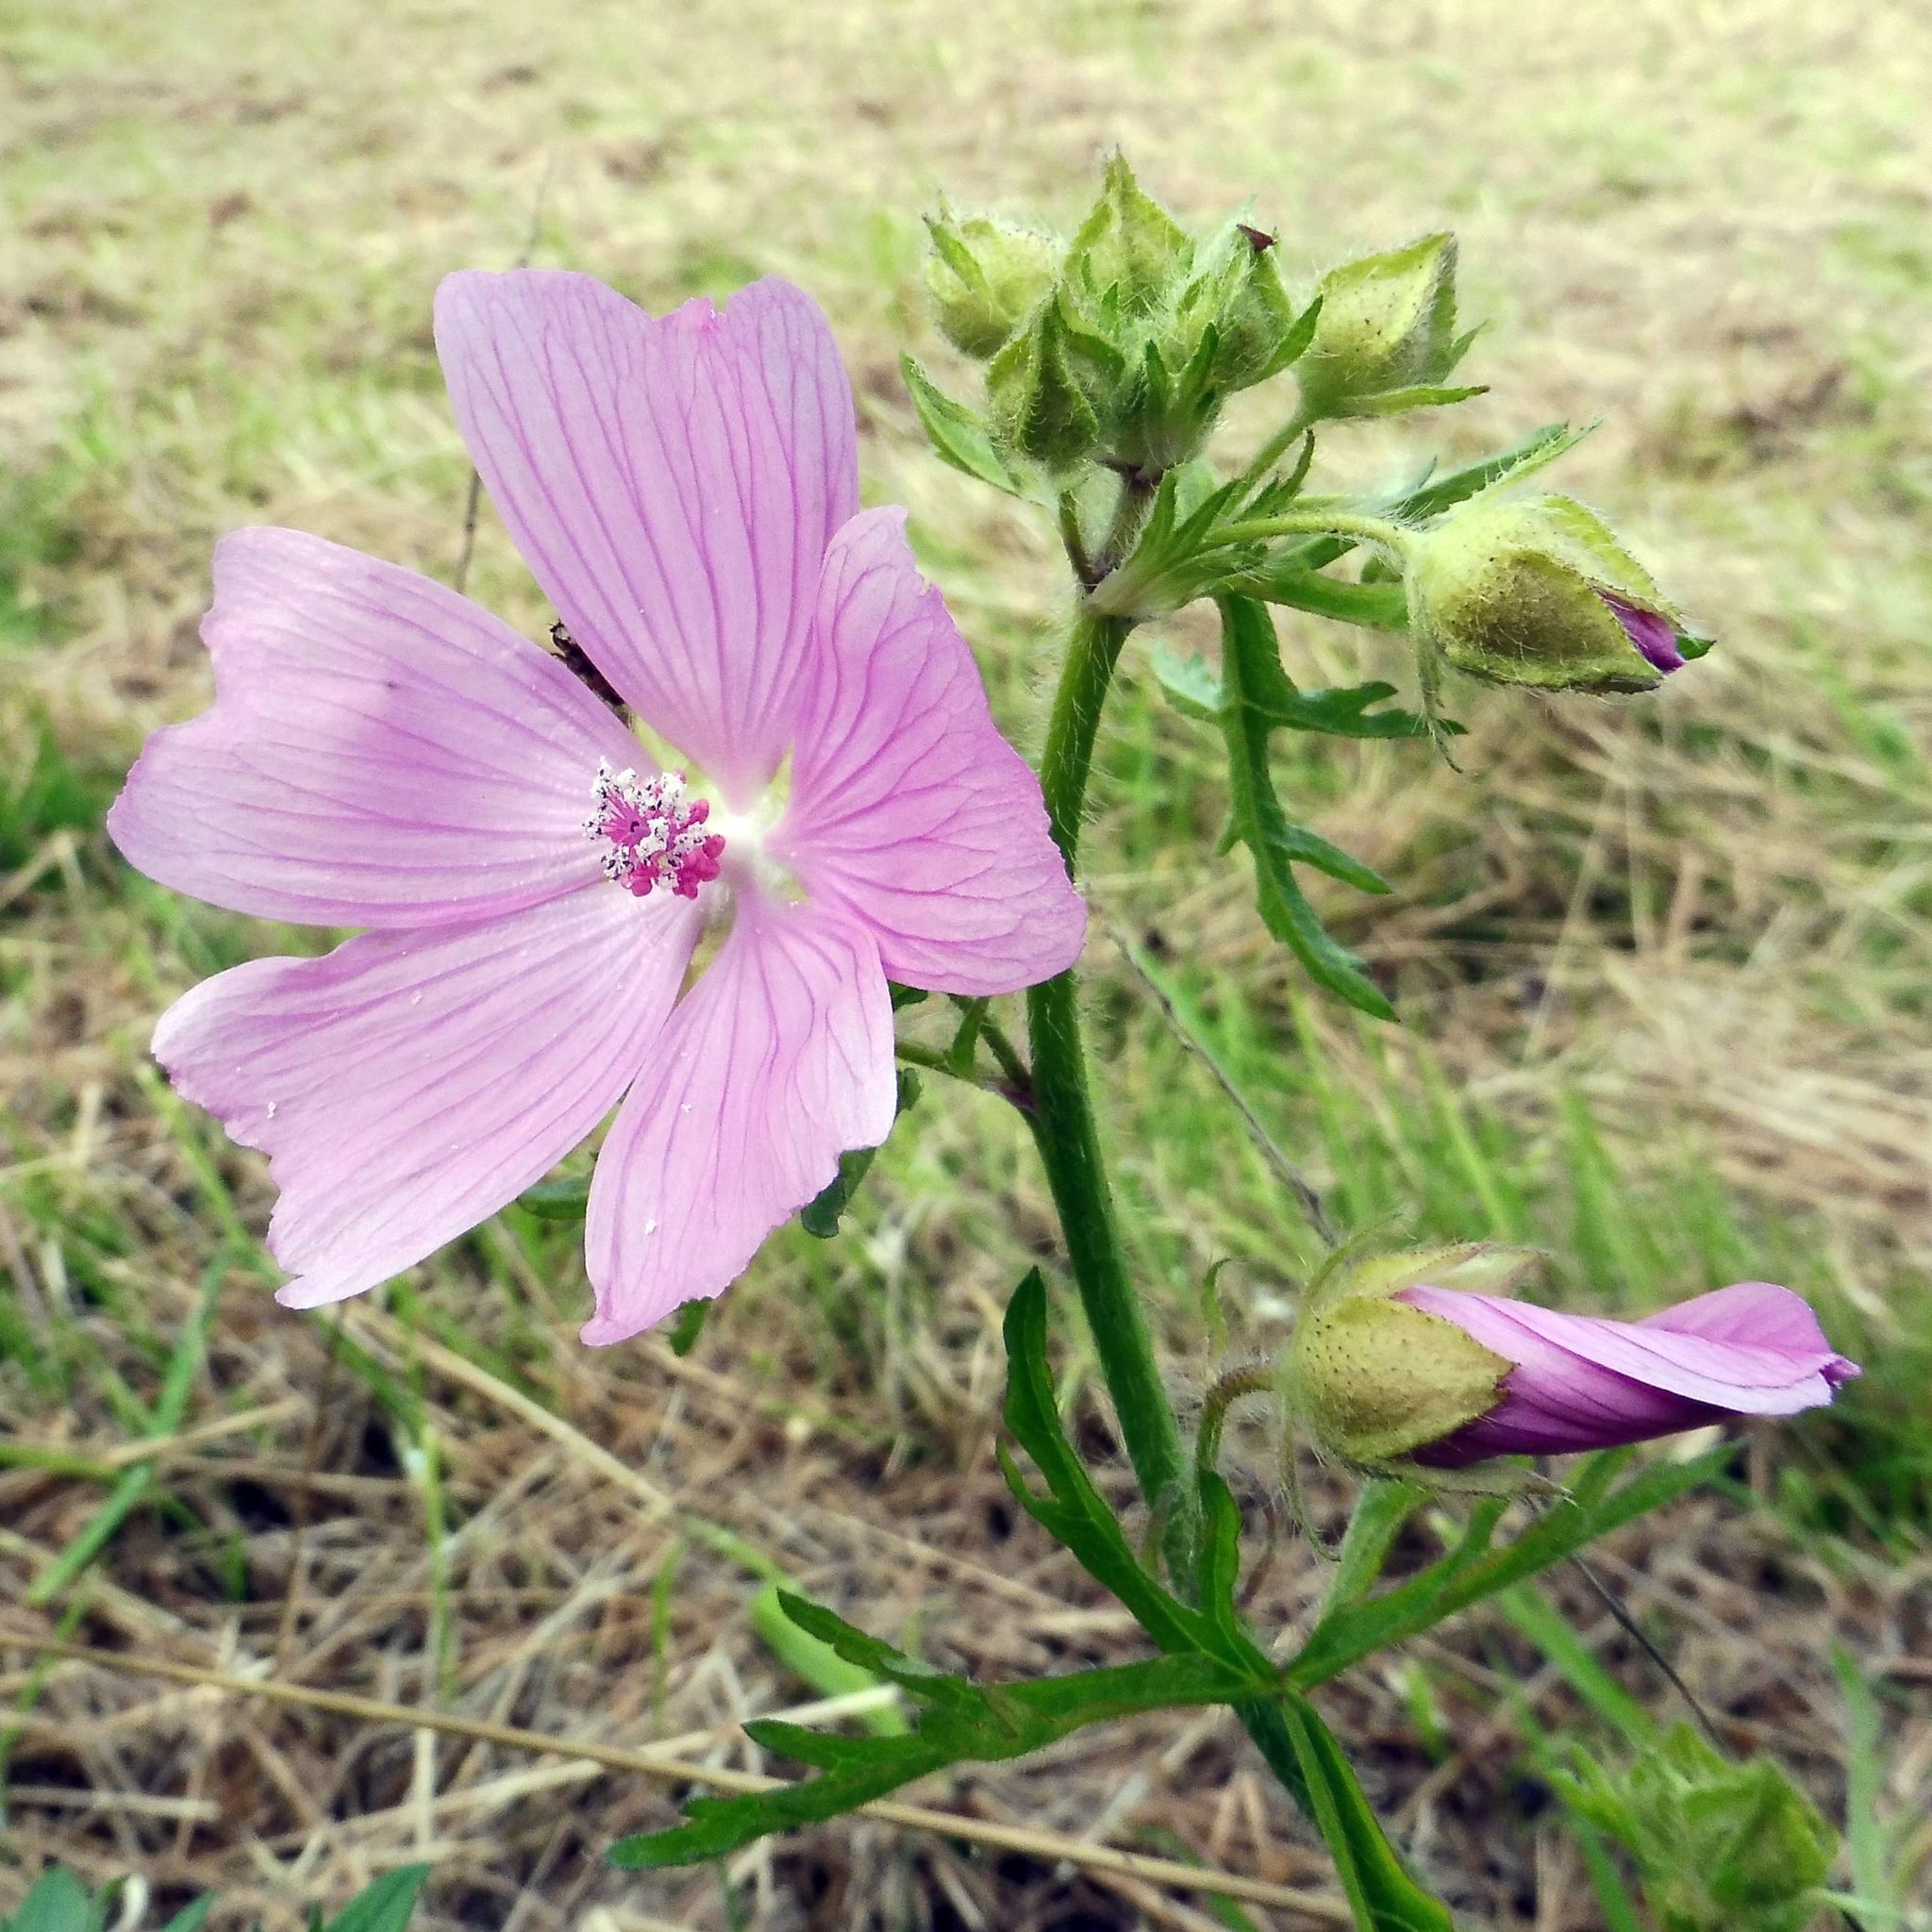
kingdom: Plantae
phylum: Tracheophyta
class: Magnoliopsida
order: Malvales
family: Malvaceae
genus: Malva
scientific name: Malva moschata
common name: Musk mallow
